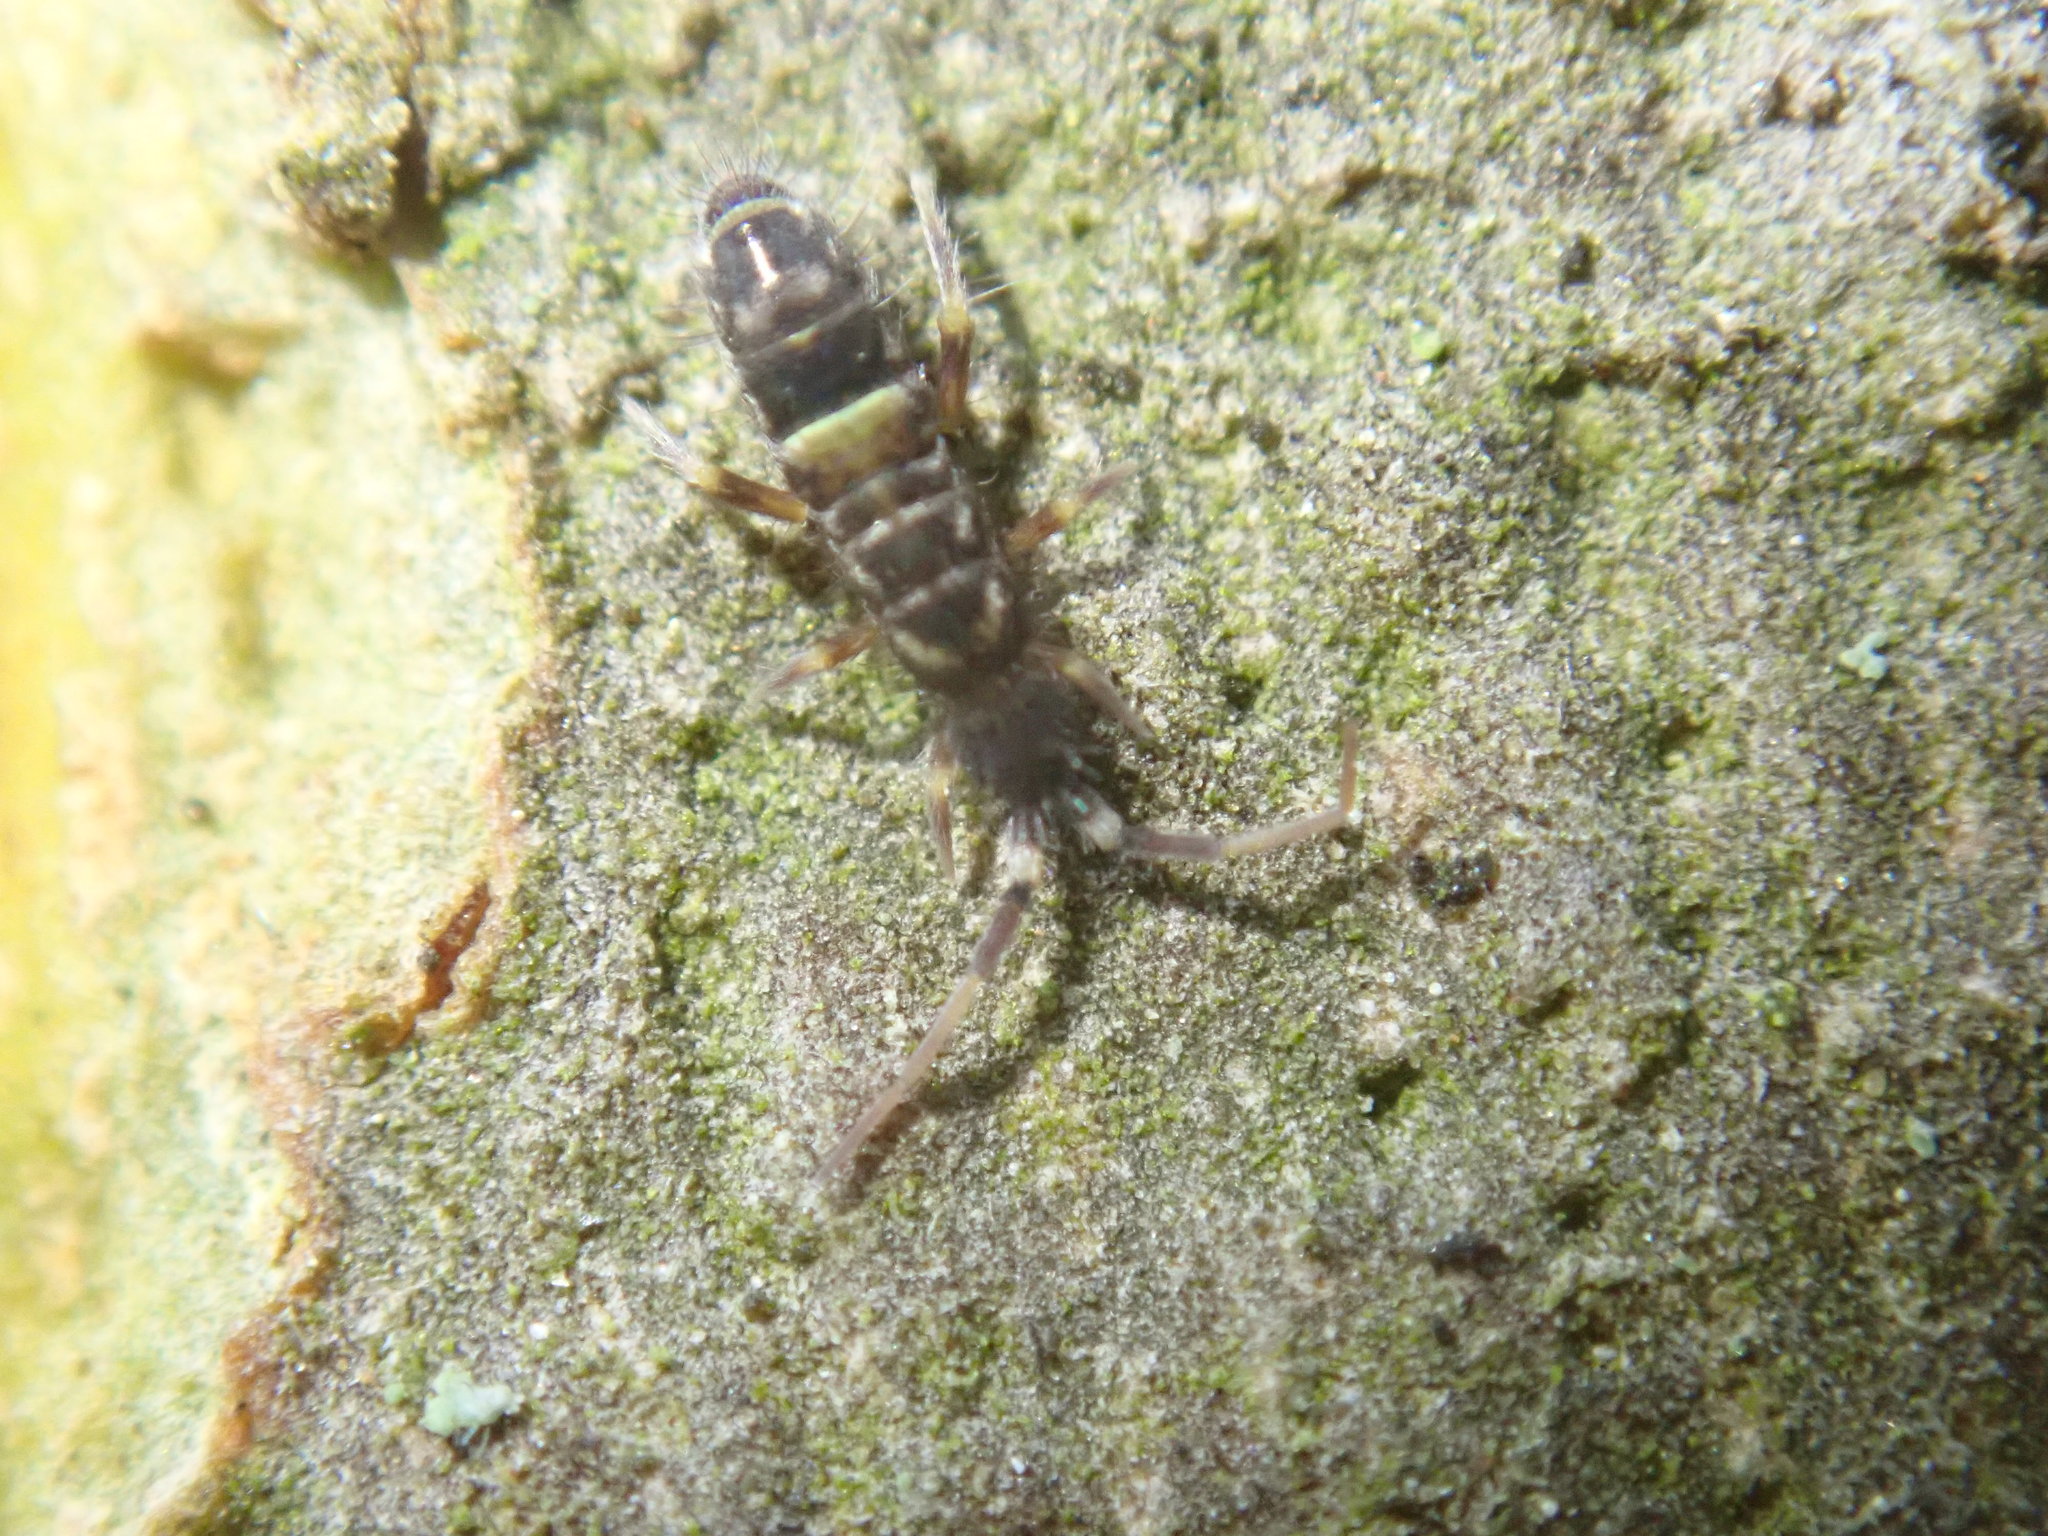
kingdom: Animalia
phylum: Arthropoda
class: Collembola
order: Entomobryomorpha
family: Orchesellidae
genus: Orchesella
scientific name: Orchesella cincta
